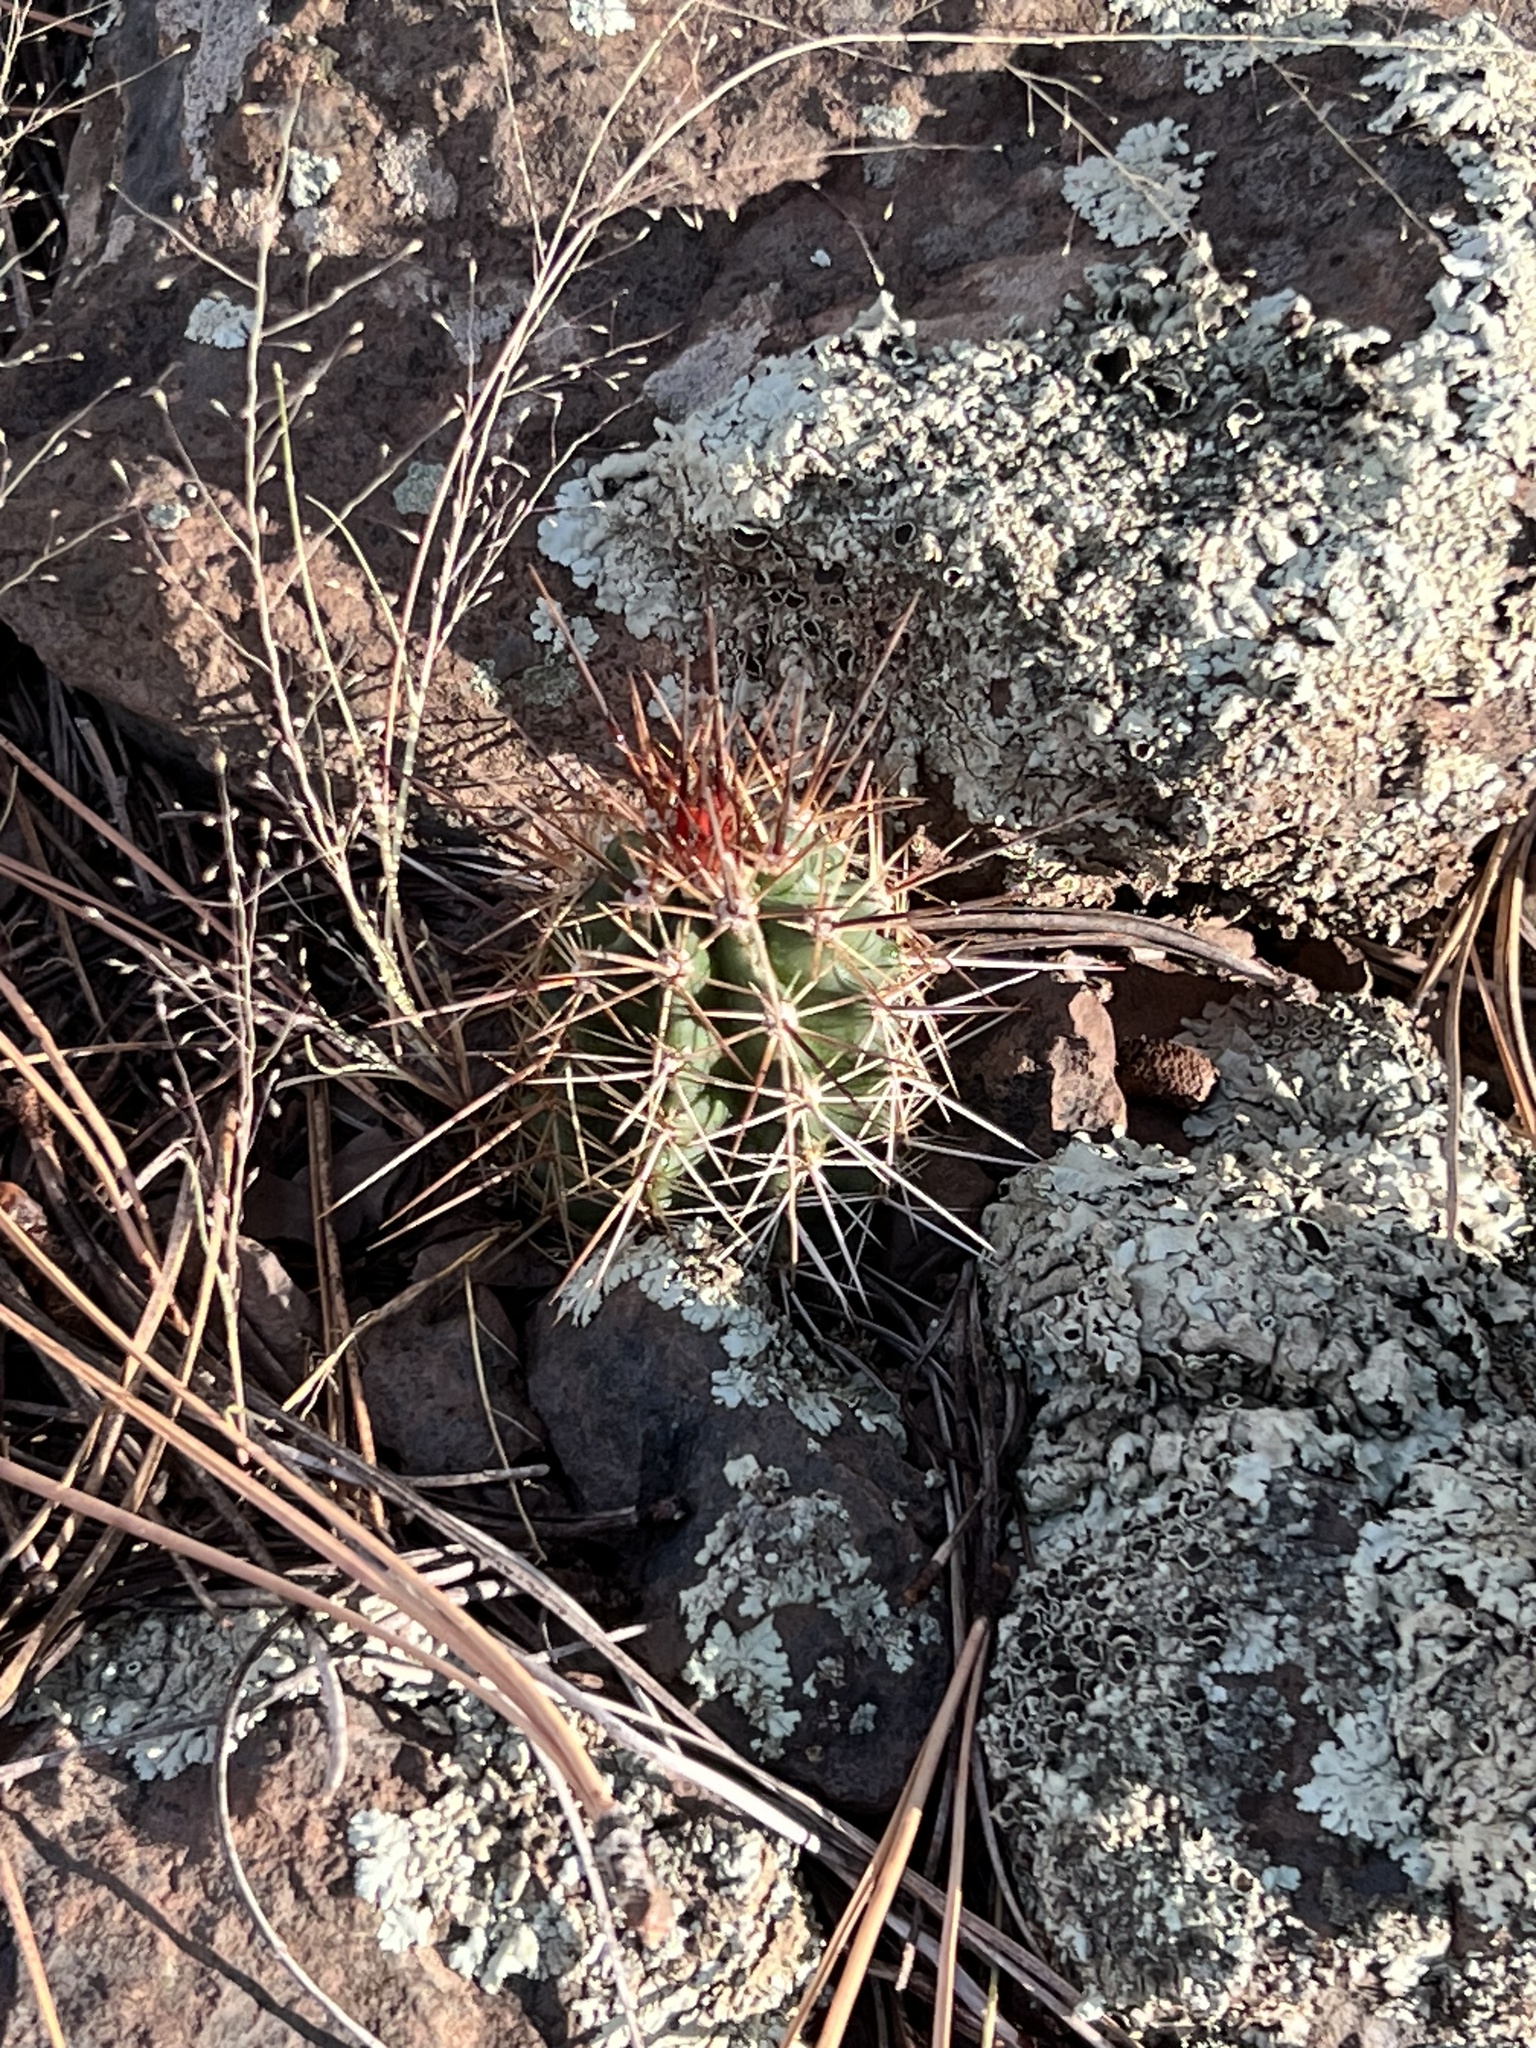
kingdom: Plantae
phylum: Tracheophyta
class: Magnoliopsida
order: Caryophyllales
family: Cactaceae
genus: Echinocereus
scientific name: Echinocereus bakeri
